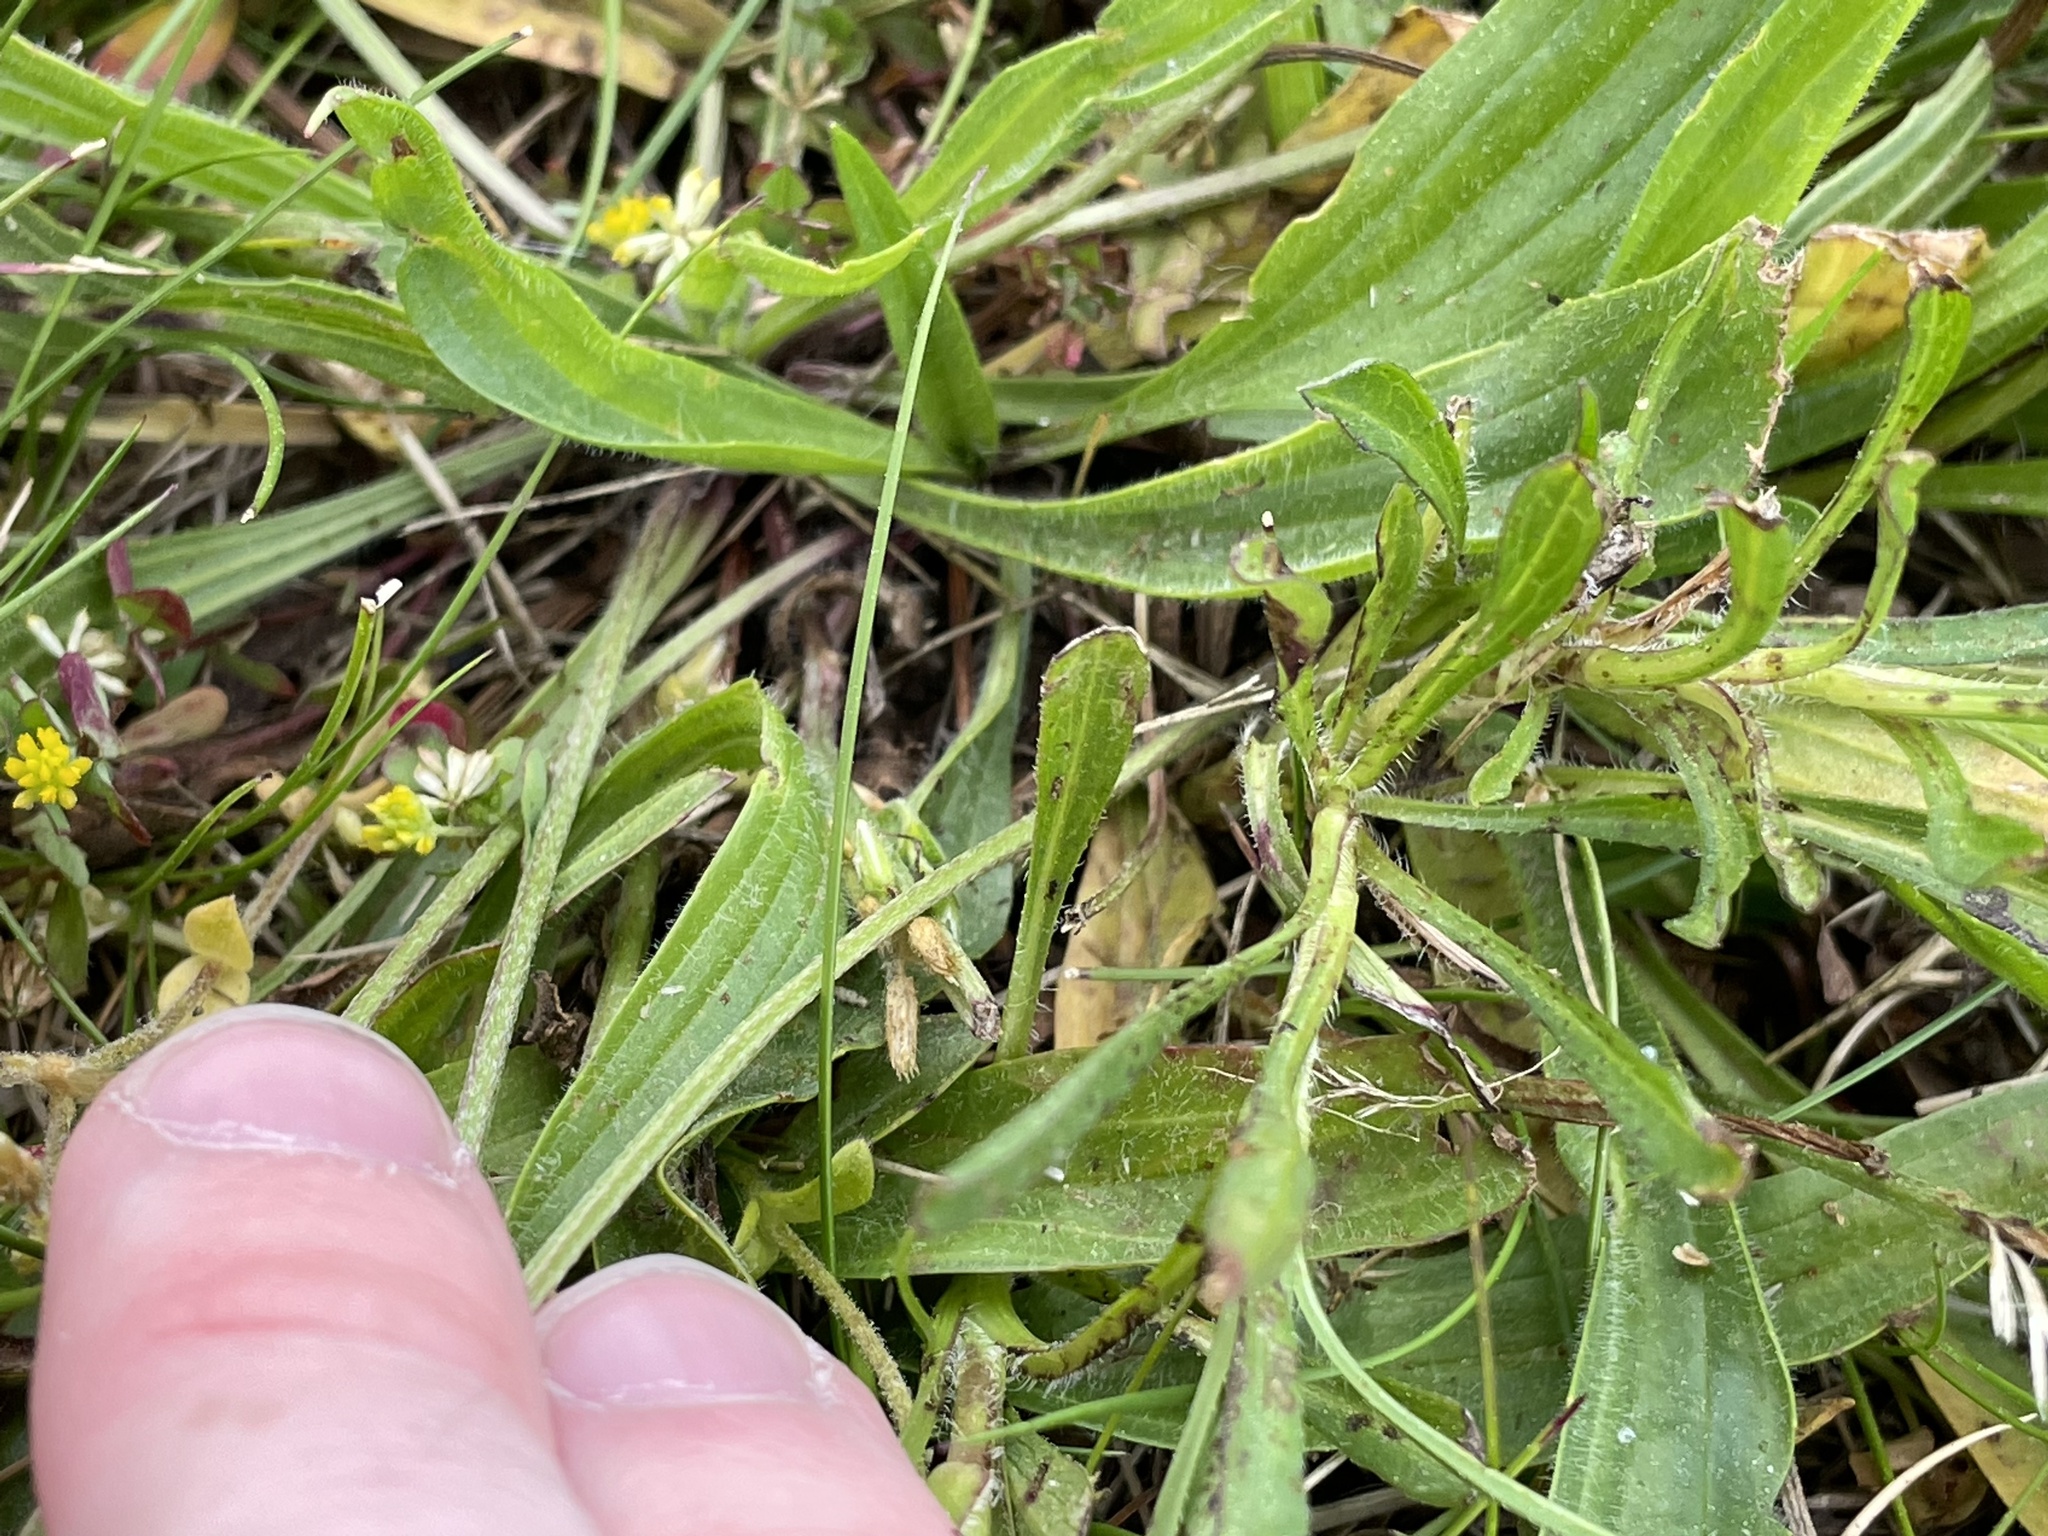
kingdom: Plantae
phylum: Tracheophyta
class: Magnoliopsida
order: Lamiales
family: Plantaginaceae
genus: Plantago
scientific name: Plantago lanceolata
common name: Ribwort plantain
